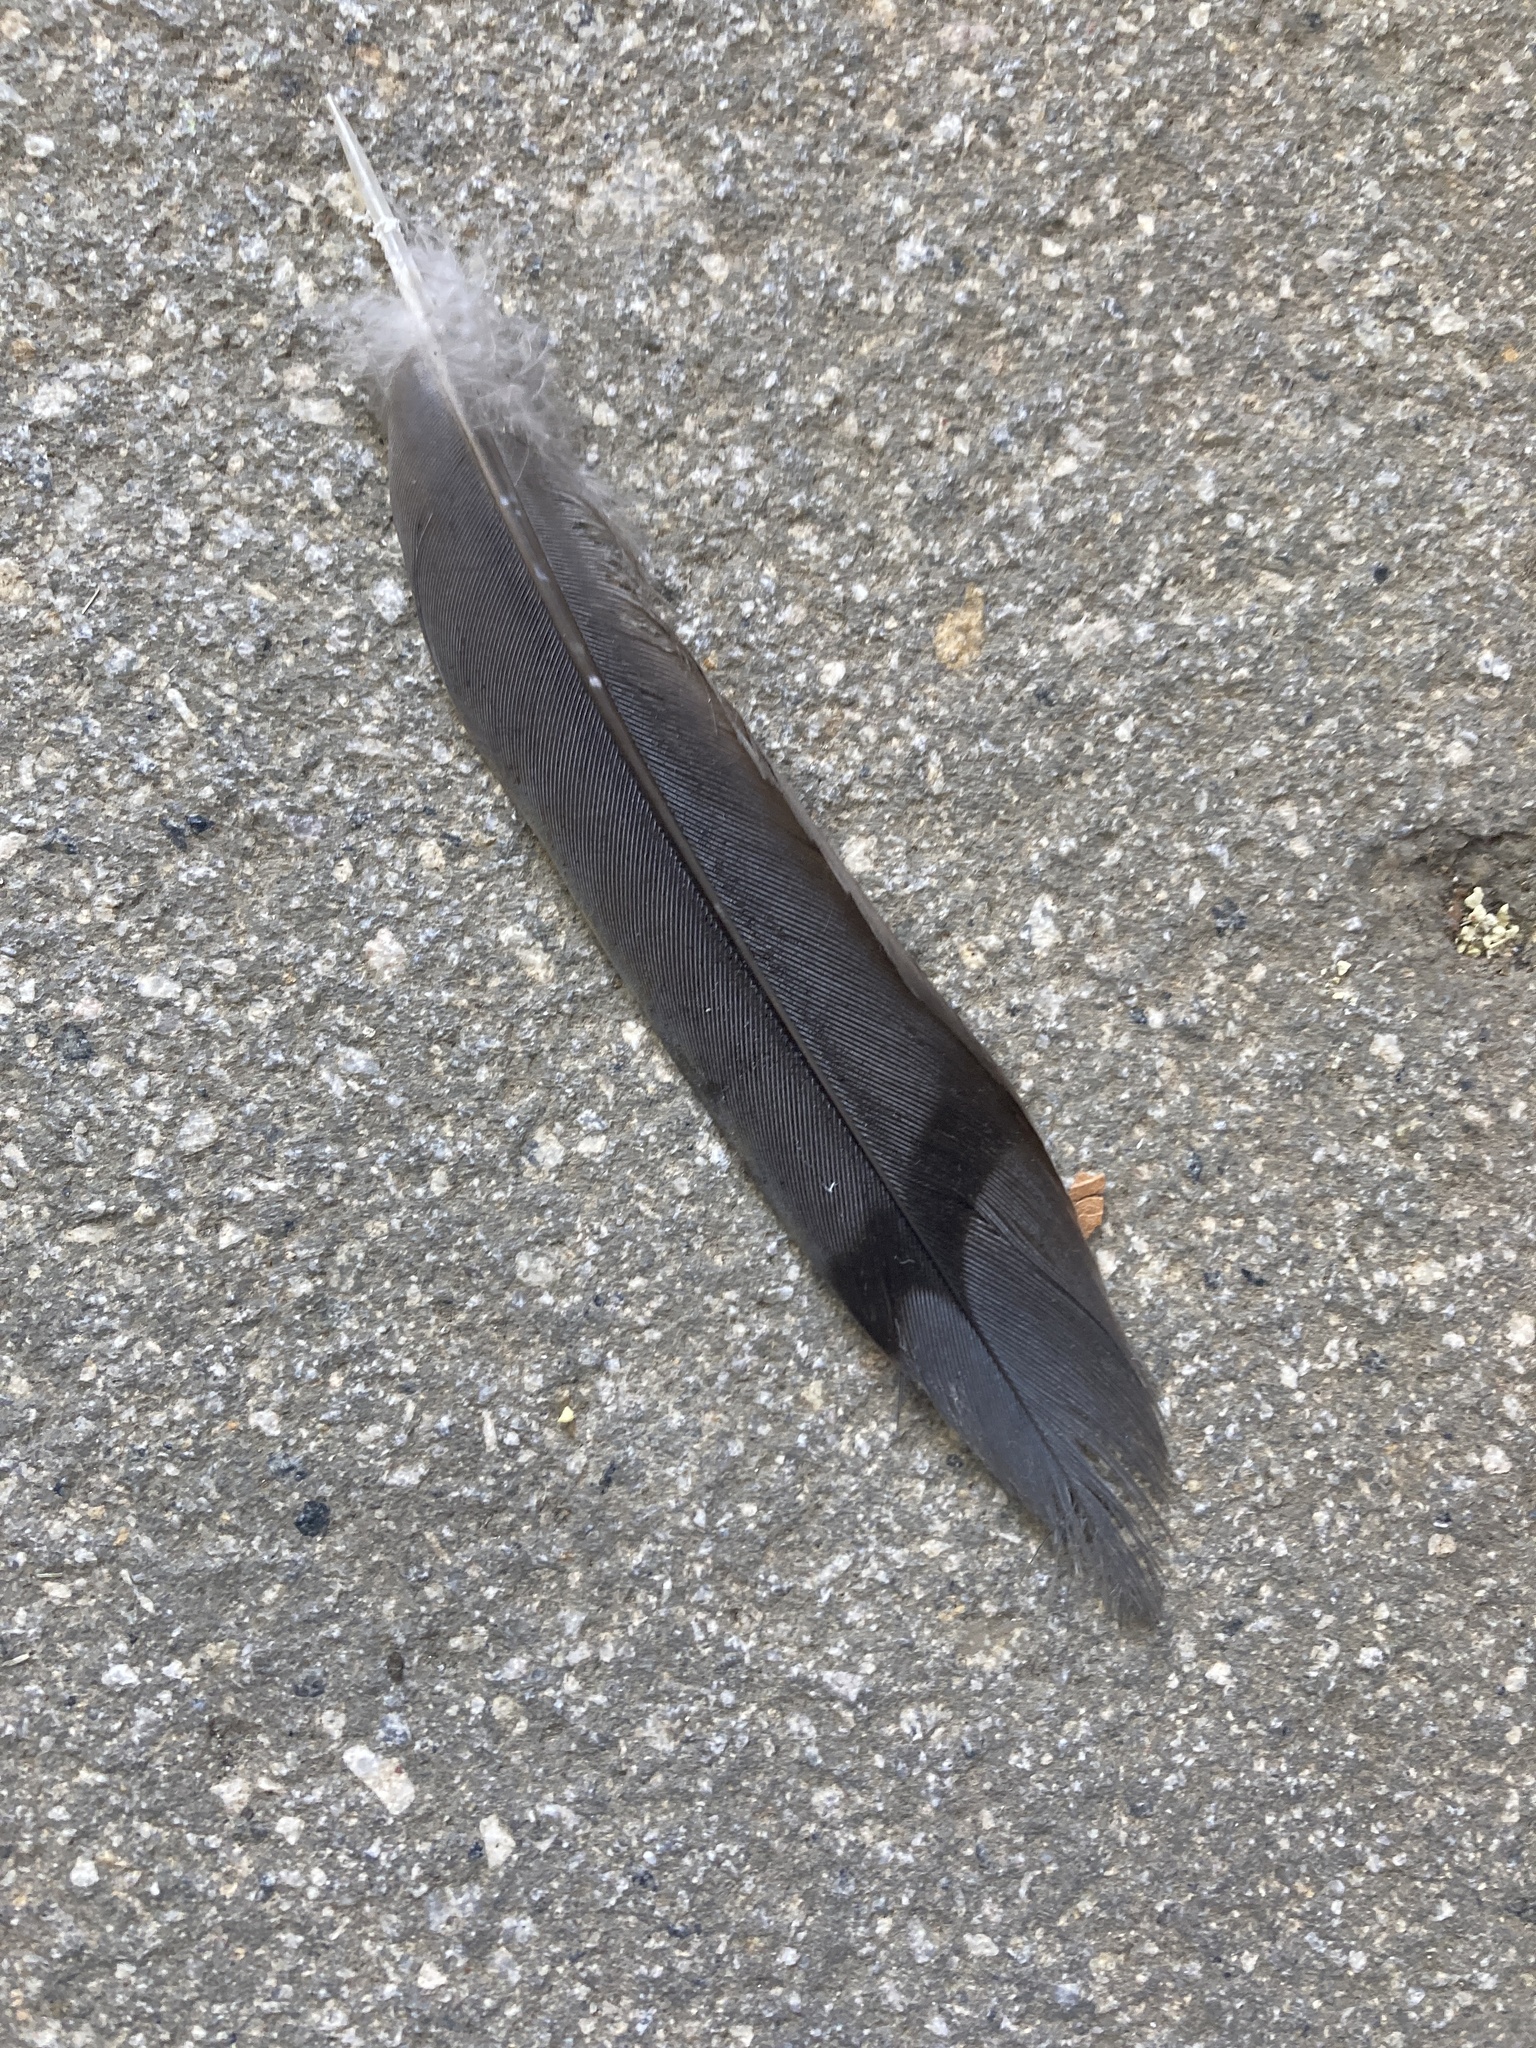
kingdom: Animalia
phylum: Chordata
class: Aves
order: Columbiformes
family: Columbidae
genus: Zenaida
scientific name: Zenaida macroura
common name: Mourning dove
